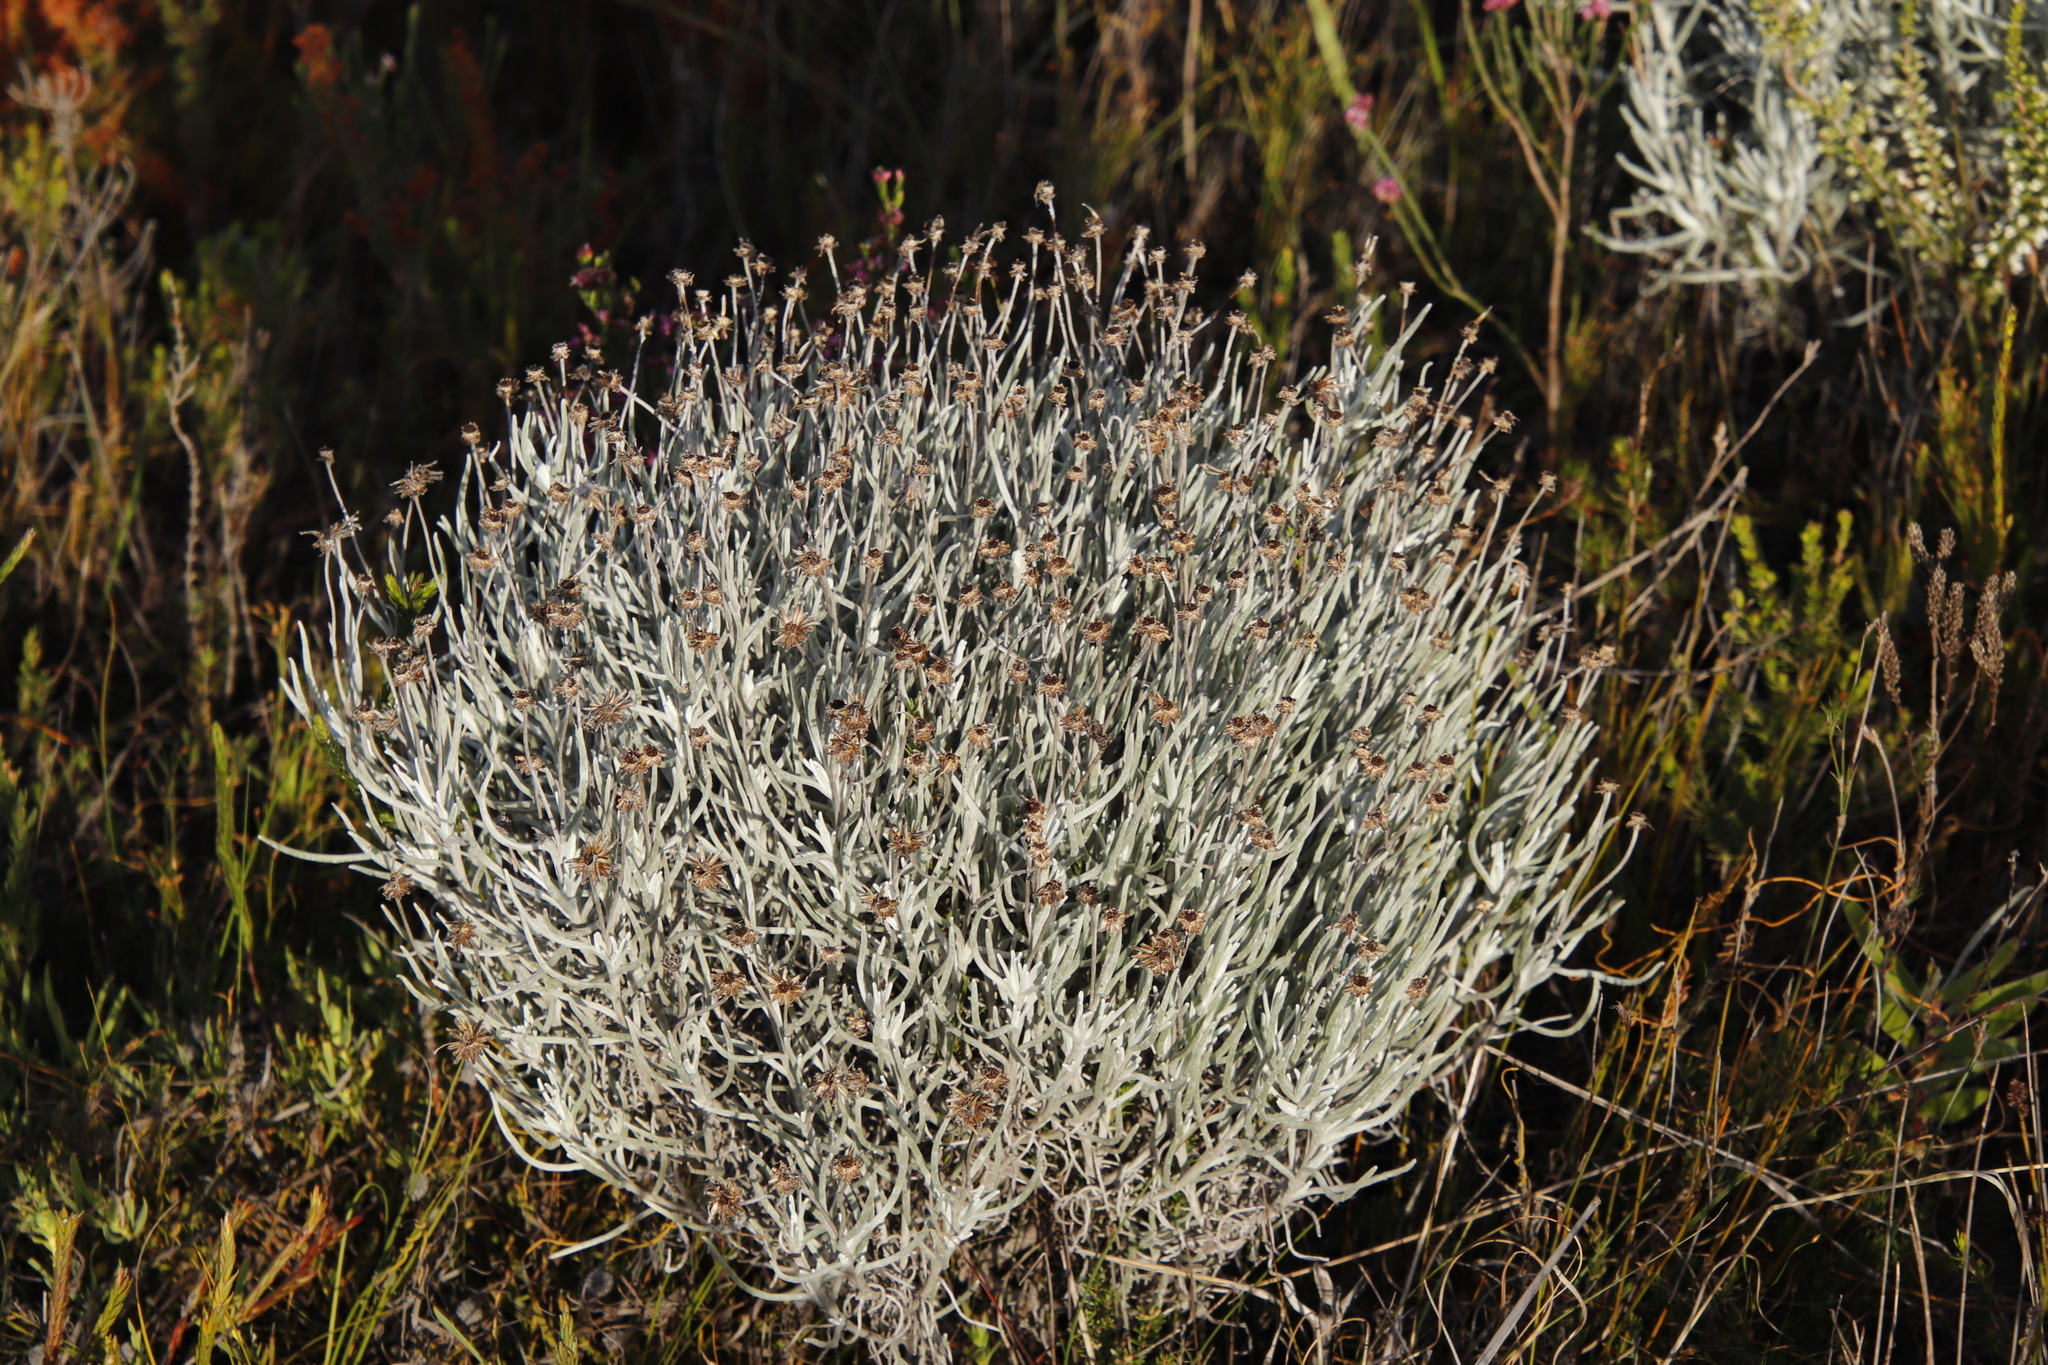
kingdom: Plantae
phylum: Tracheophyta
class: Magnoliopsida
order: Asterales
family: Asteraceae
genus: Syncarpha
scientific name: Syncarpha gnaphaloides
